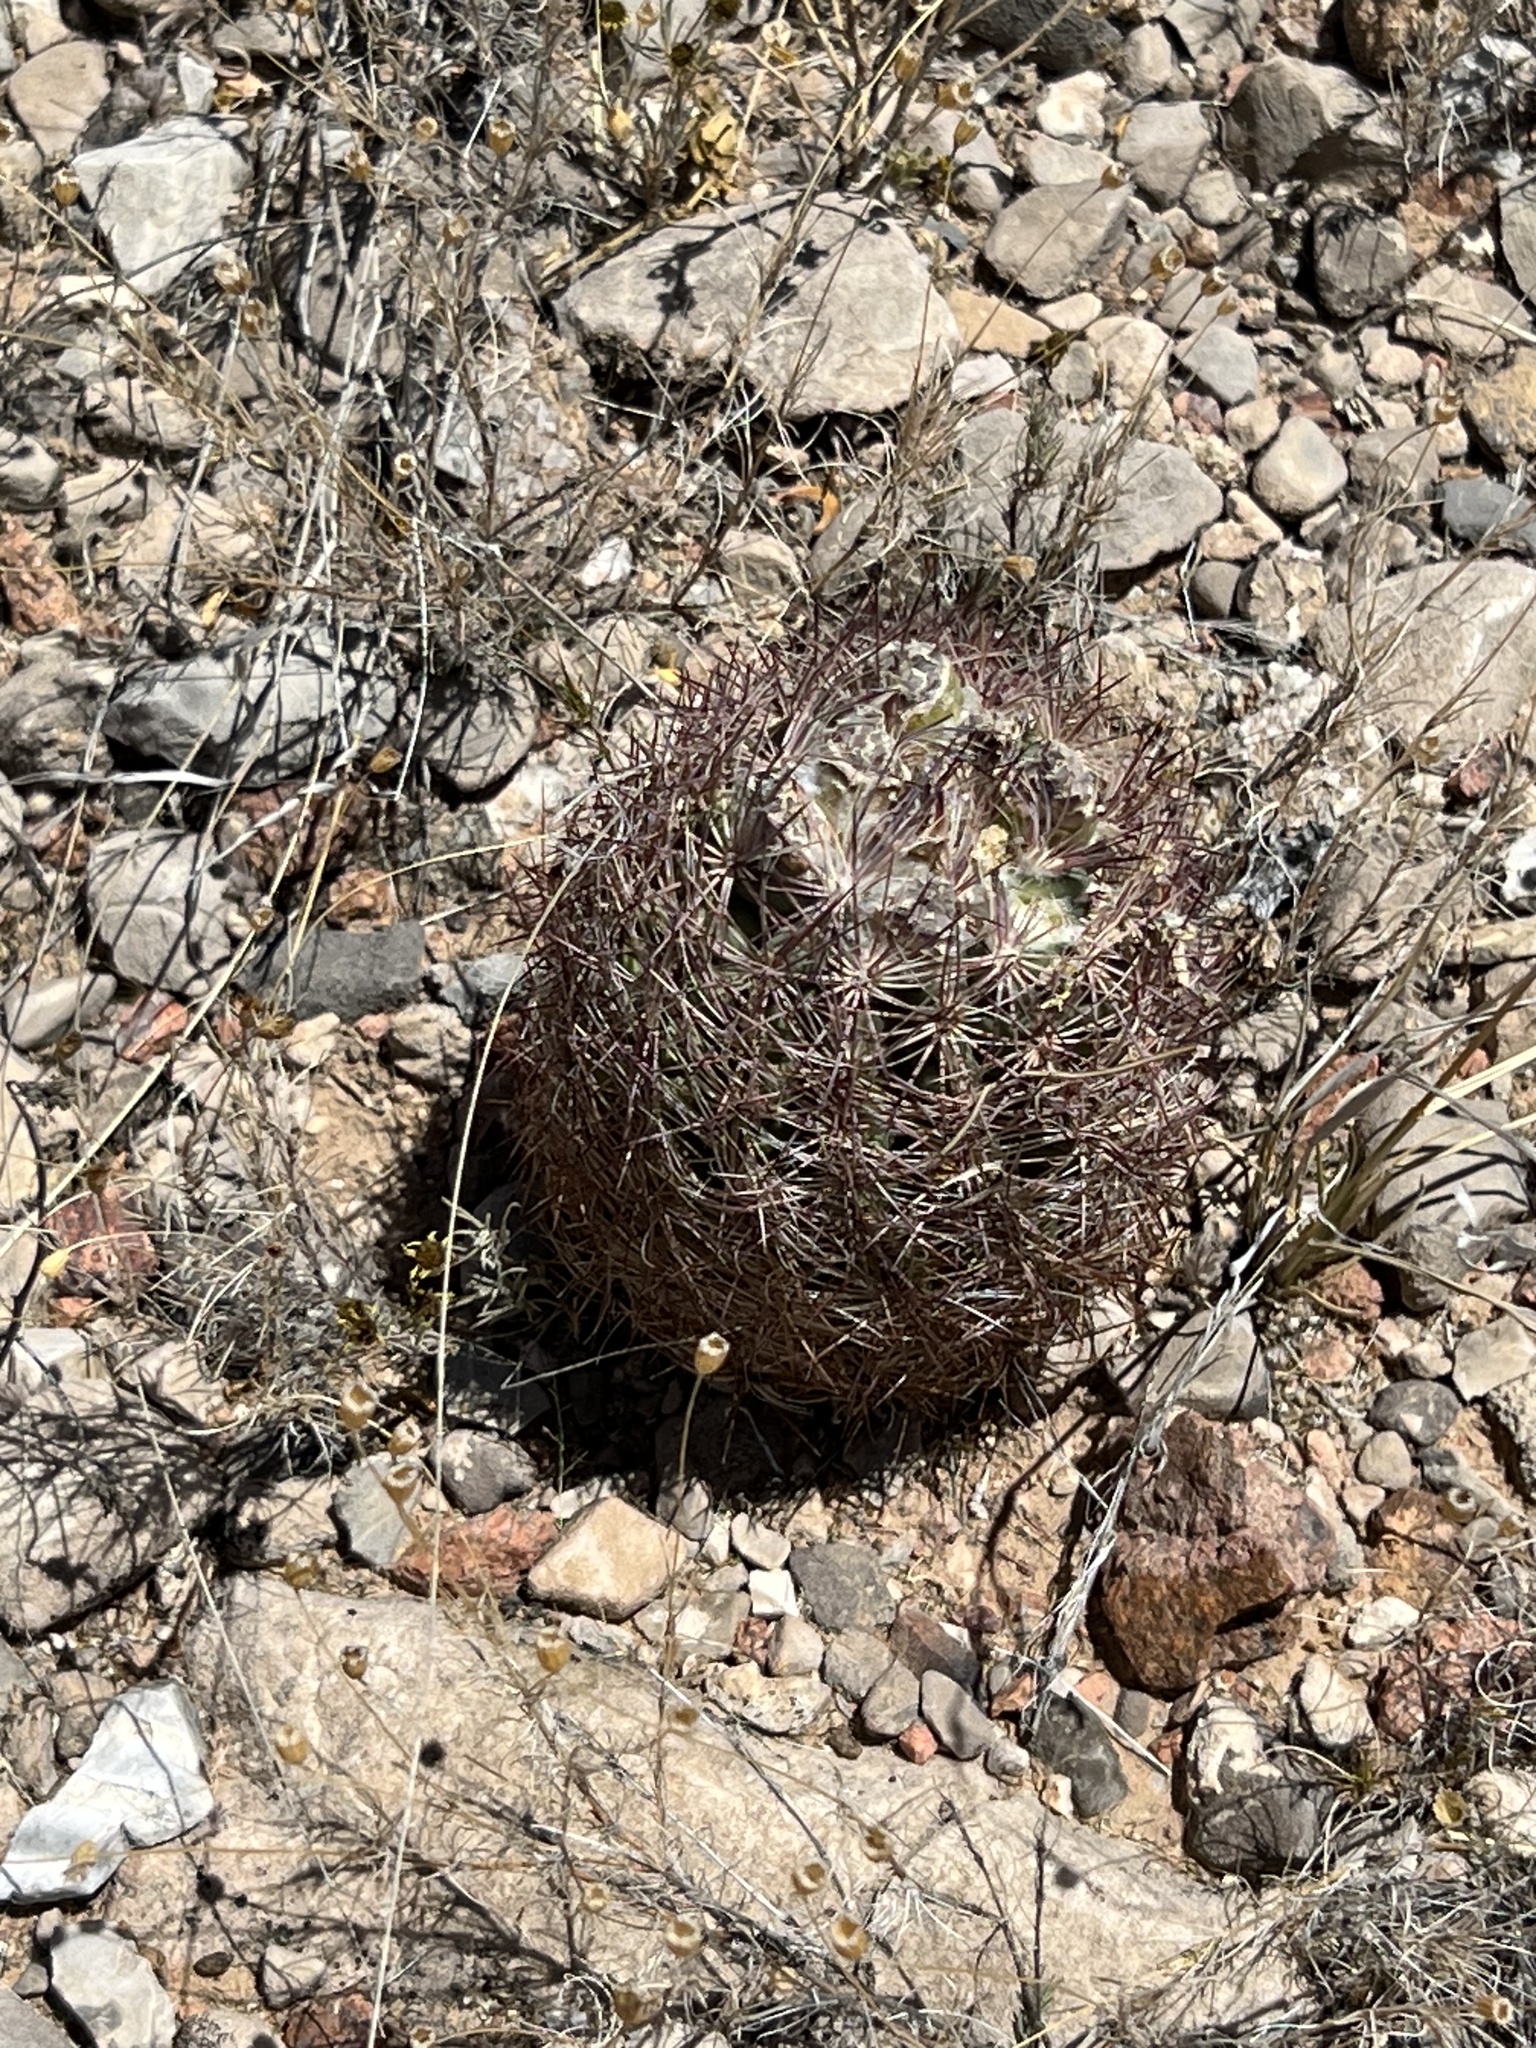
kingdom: Plantae
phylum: Tracheophyta
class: Magnoliopsida
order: Caryophyllales
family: Cactaceae
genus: Sclerocactus
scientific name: Sclerocactus intertextus
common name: White fish-hook cactus
